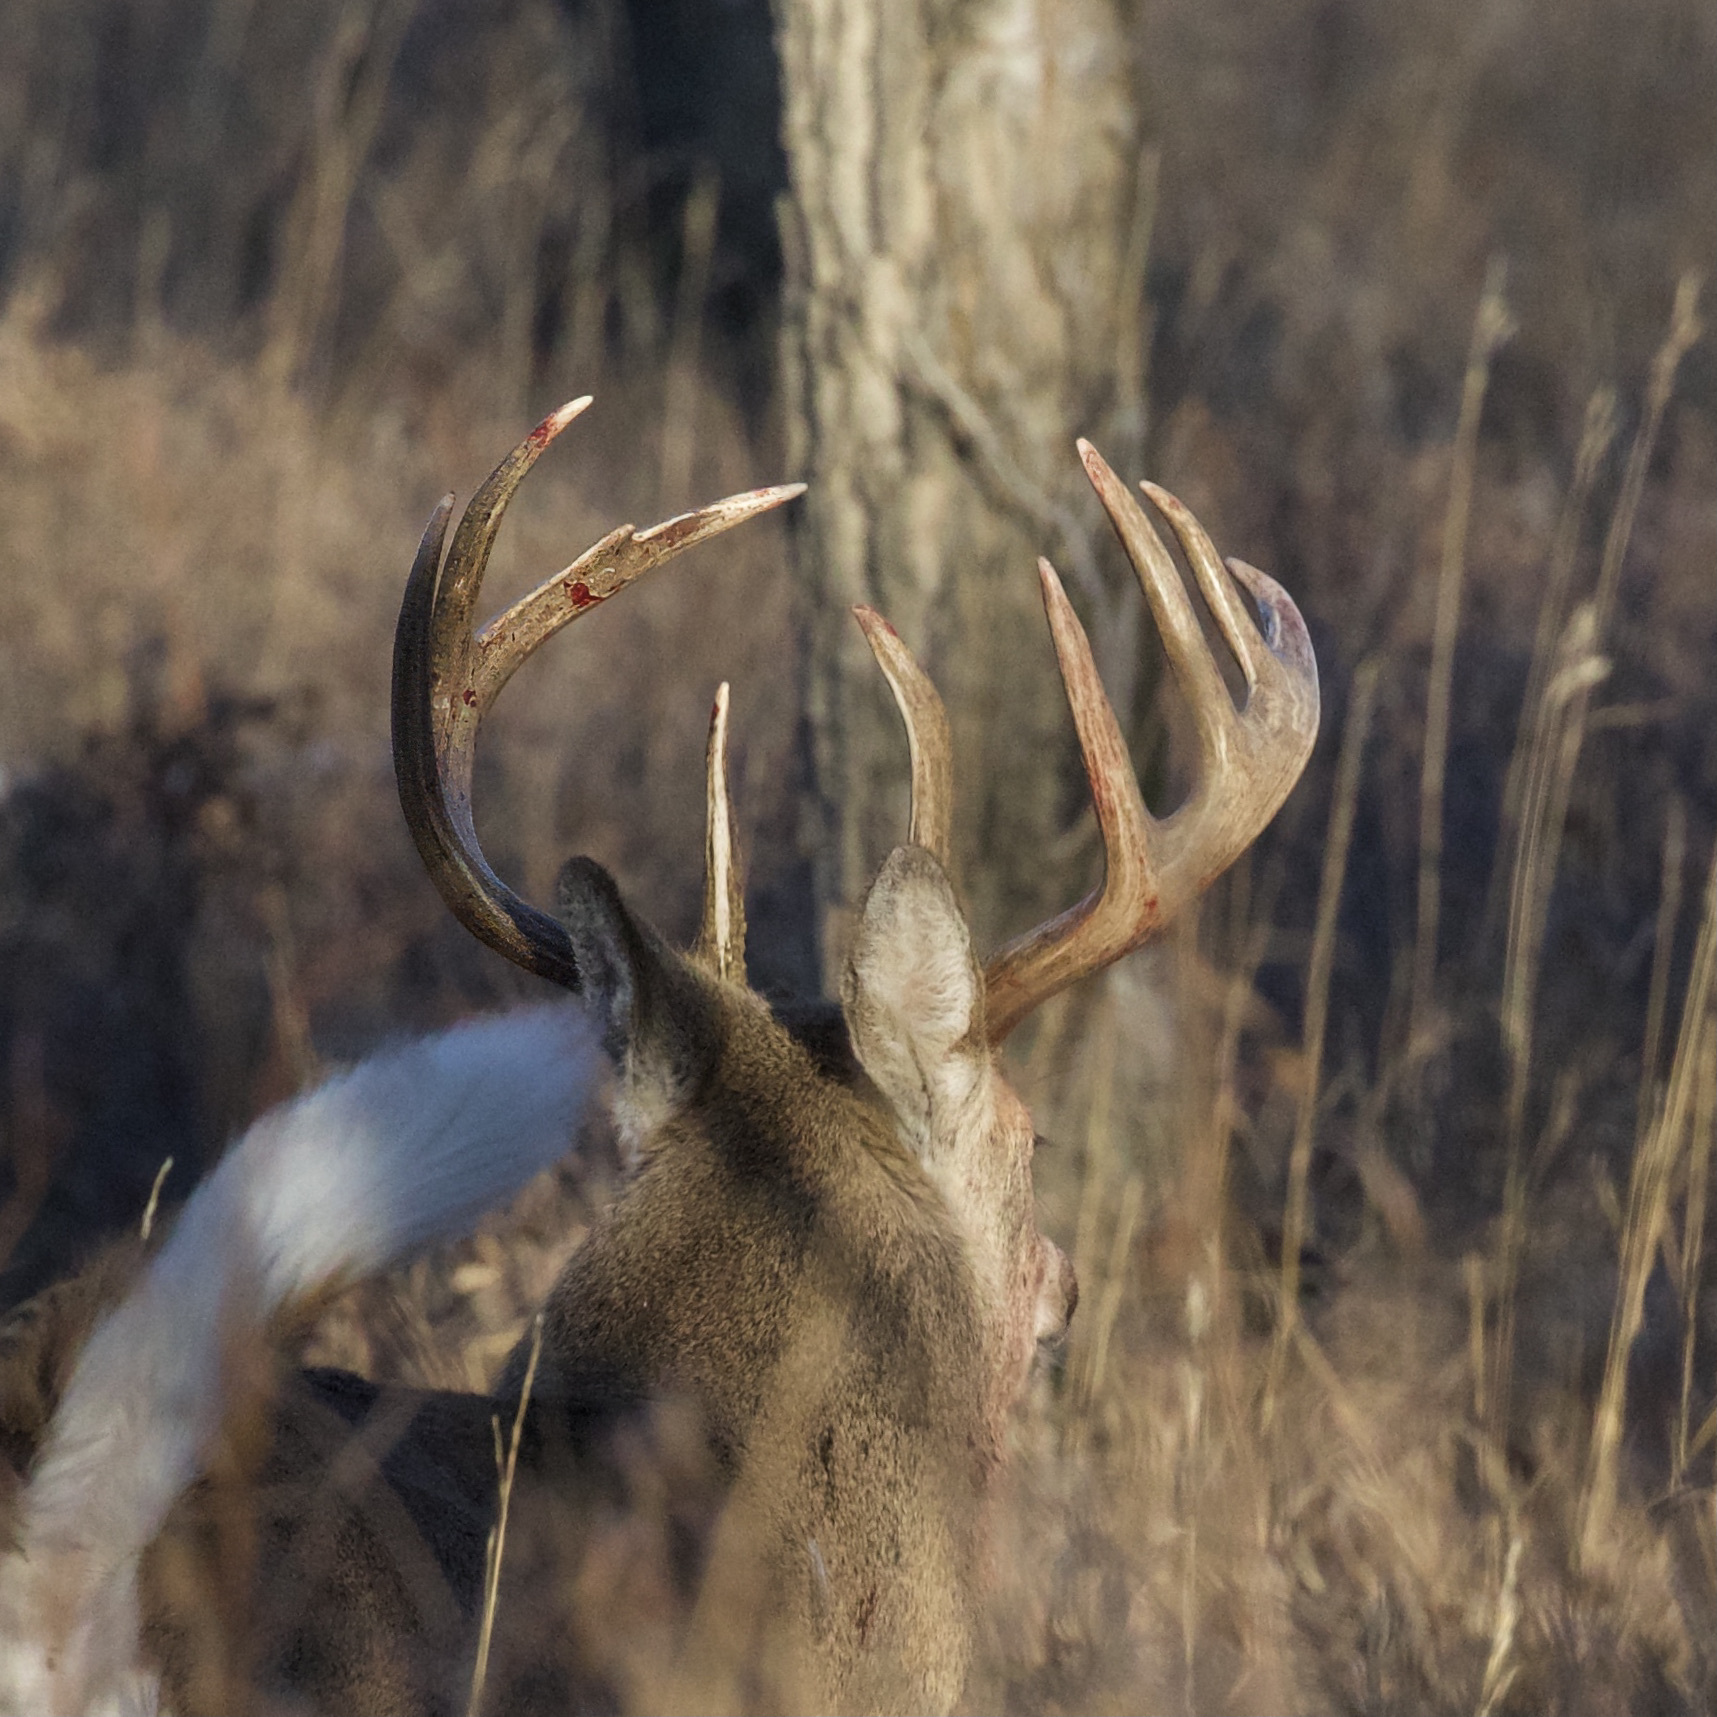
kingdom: Animalia
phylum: Chordata
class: Mammalia
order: Artiodactyla
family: Cervidae
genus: Odocoileus
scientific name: Odocoileus virginianus
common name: White-tailed deer
